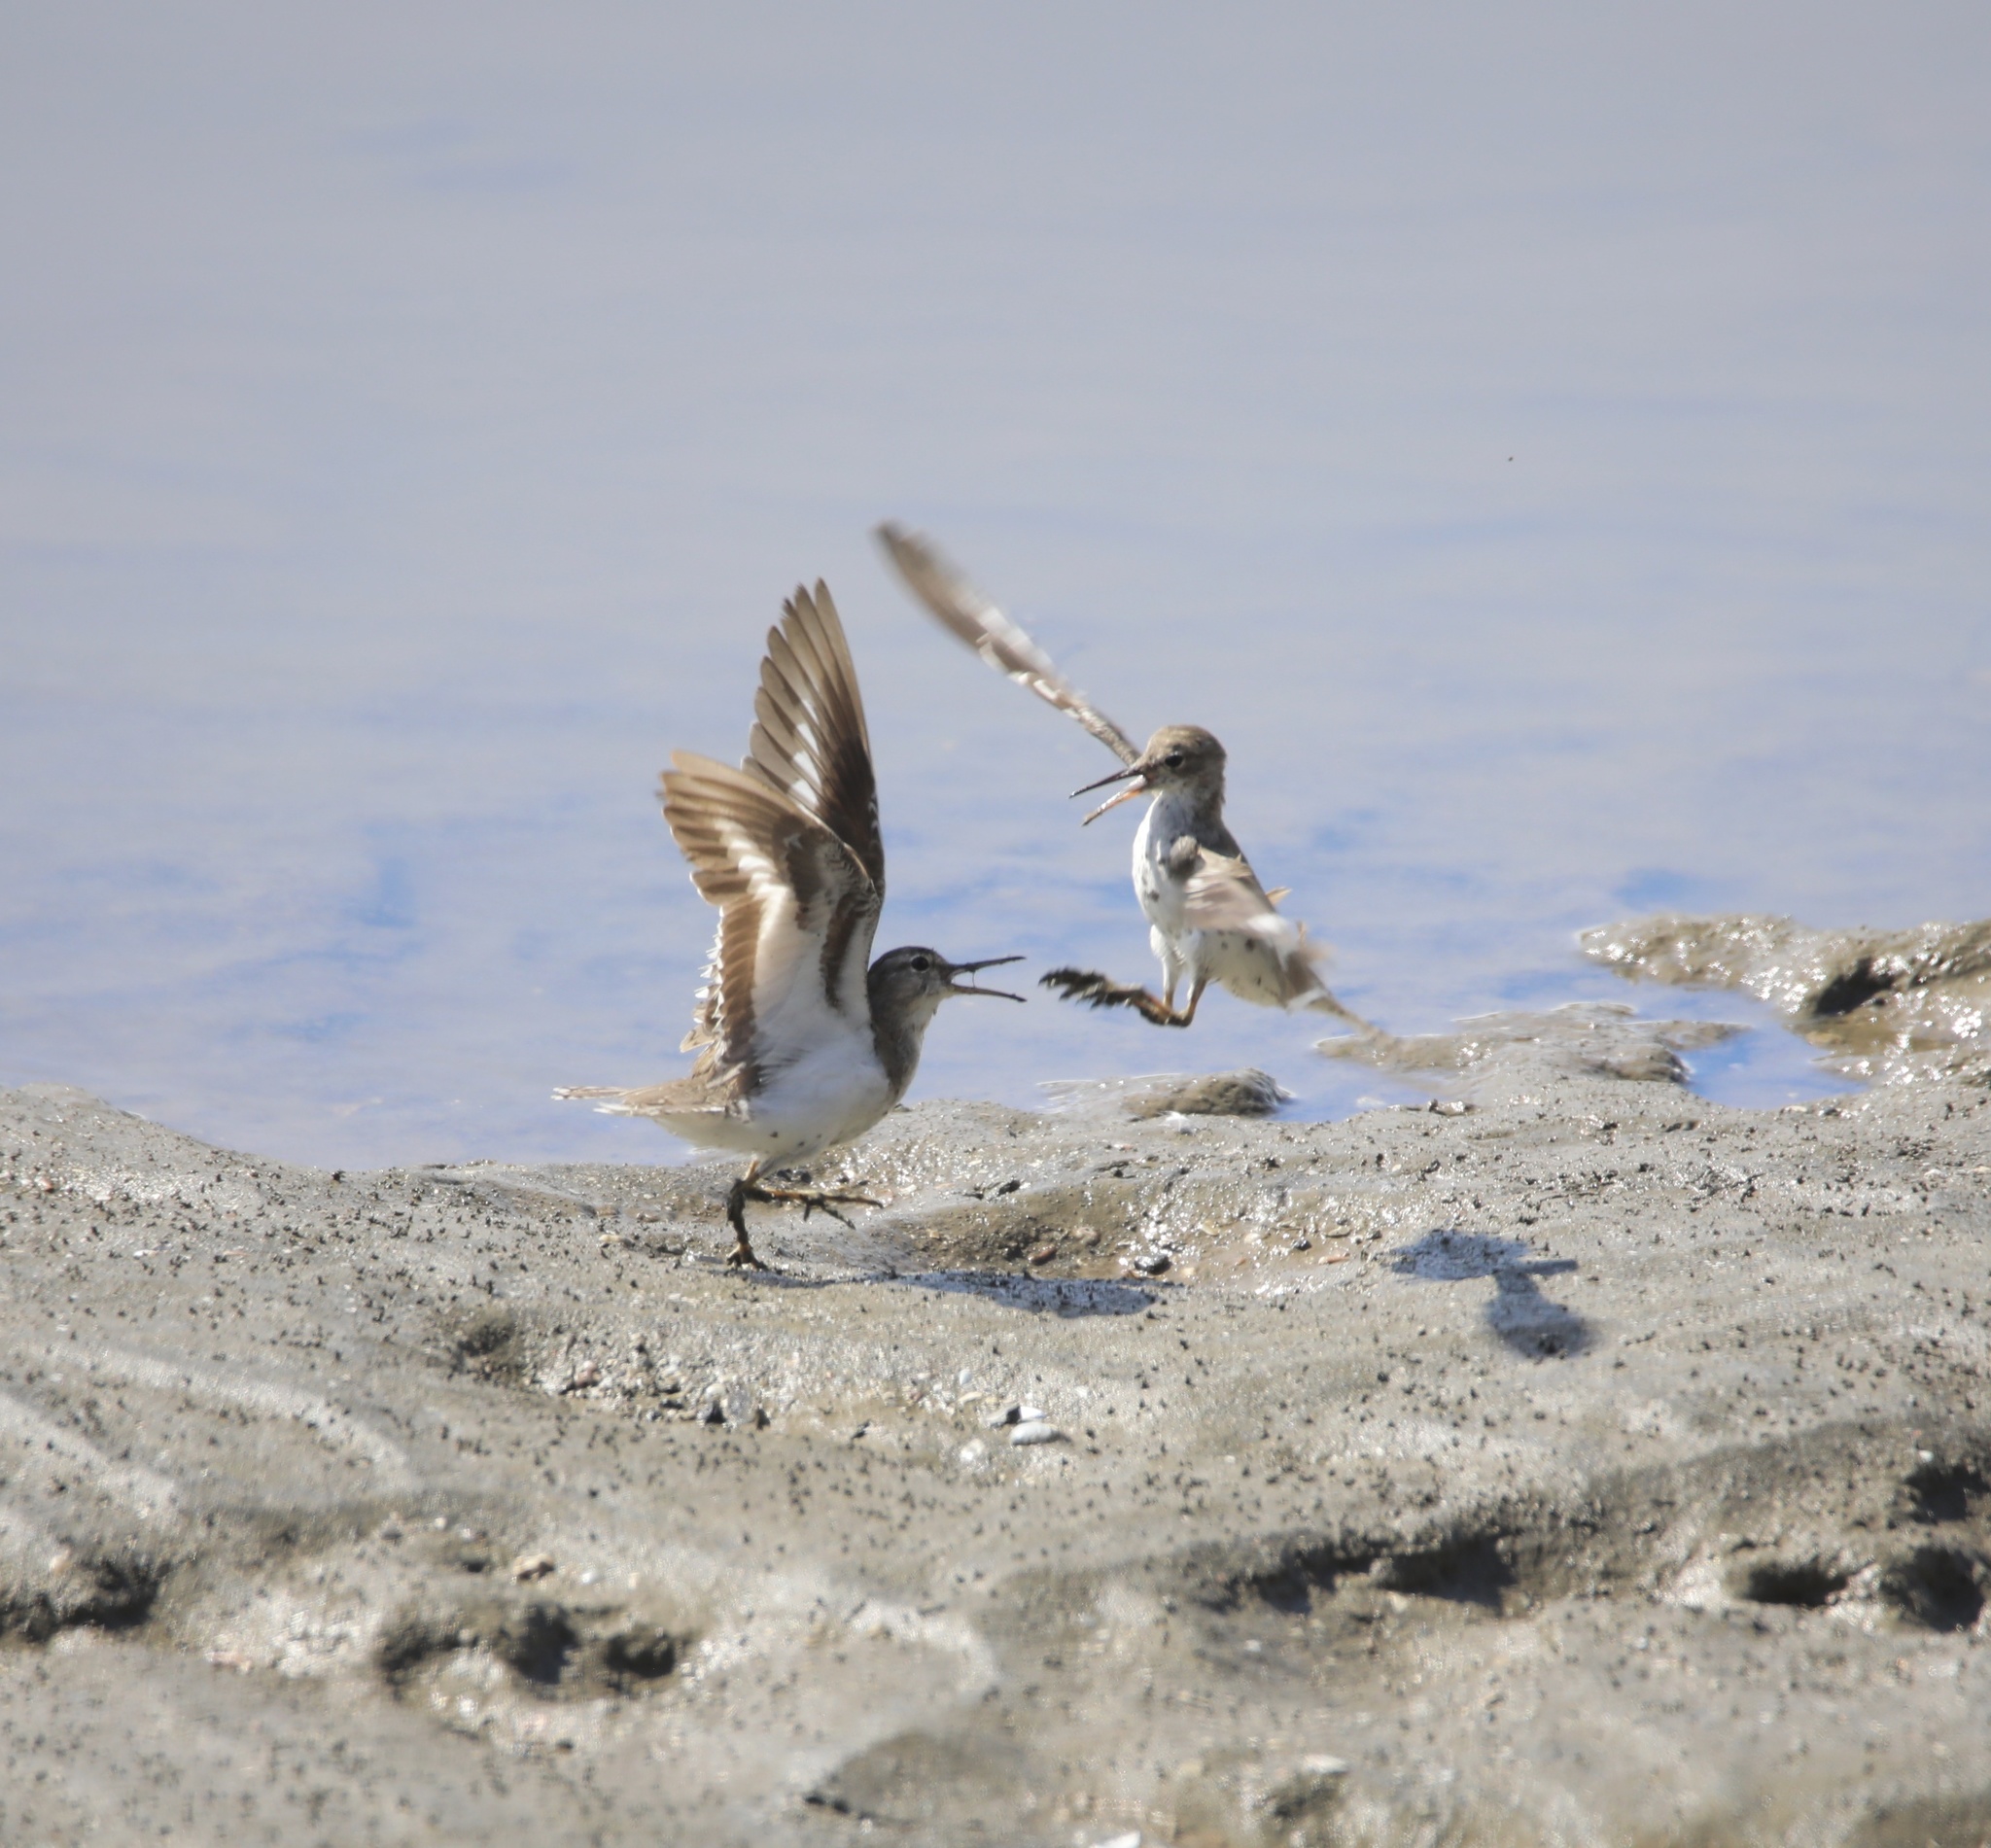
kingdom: Animalia
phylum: Chordata
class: Aves
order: Charadriiformes
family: Scolopacidae
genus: Actitis
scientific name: Actitis macularius
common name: Spotted sandpiper
